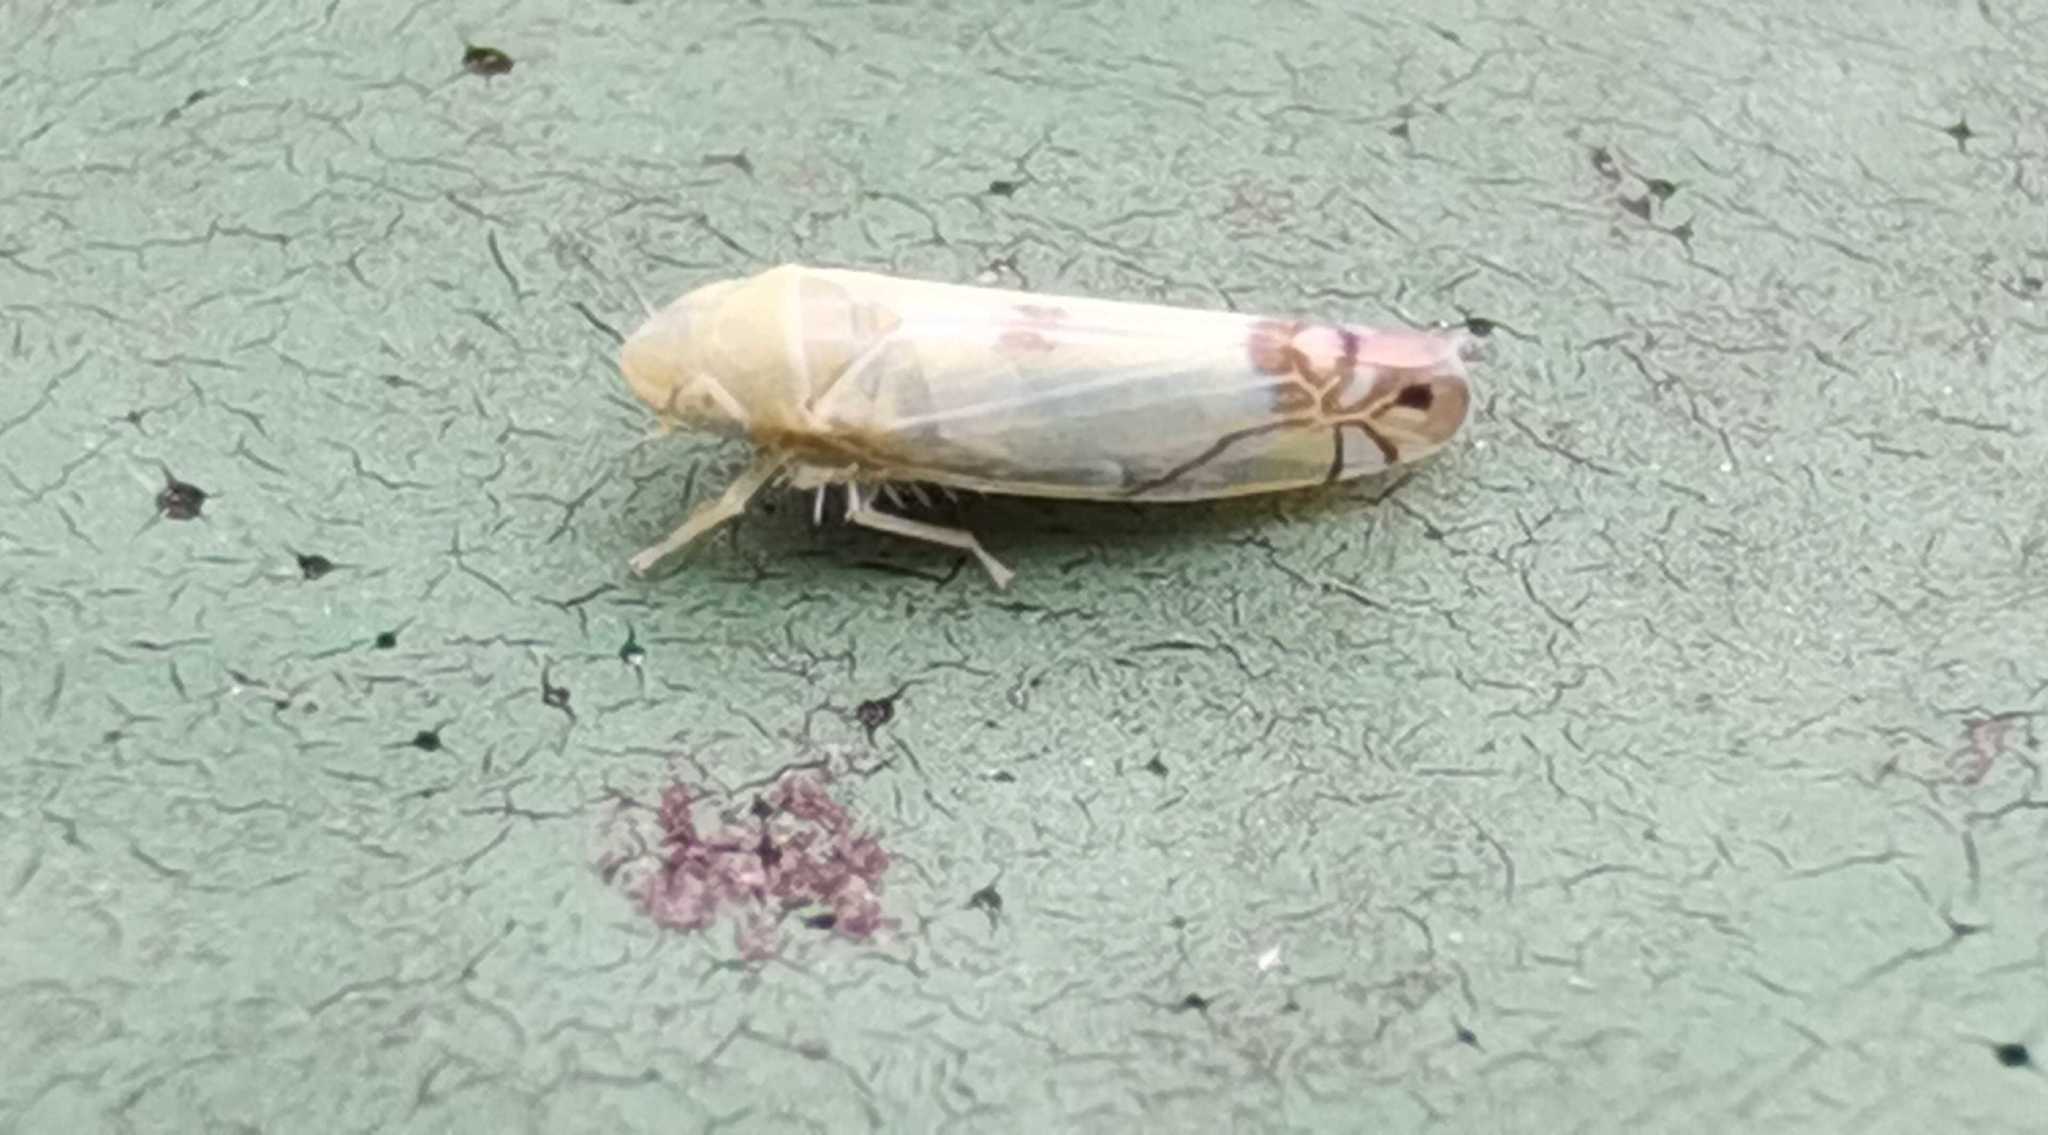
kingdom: Animalia
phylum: Arthropoda
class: Insecta
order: Hemiptera
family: Cicadellidae
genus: Zyginella
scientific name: Zyginella pulchra
